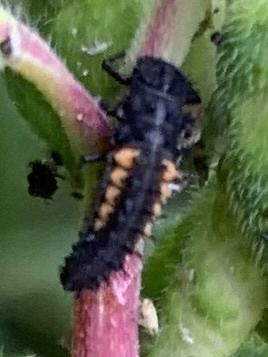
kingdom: Animalia
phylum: Arthropoda
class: Insecta
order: Coleoptera
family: Coccinellidae
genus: Harmonia
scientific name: Harmonia axyridis
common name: Harlequin ladybird
